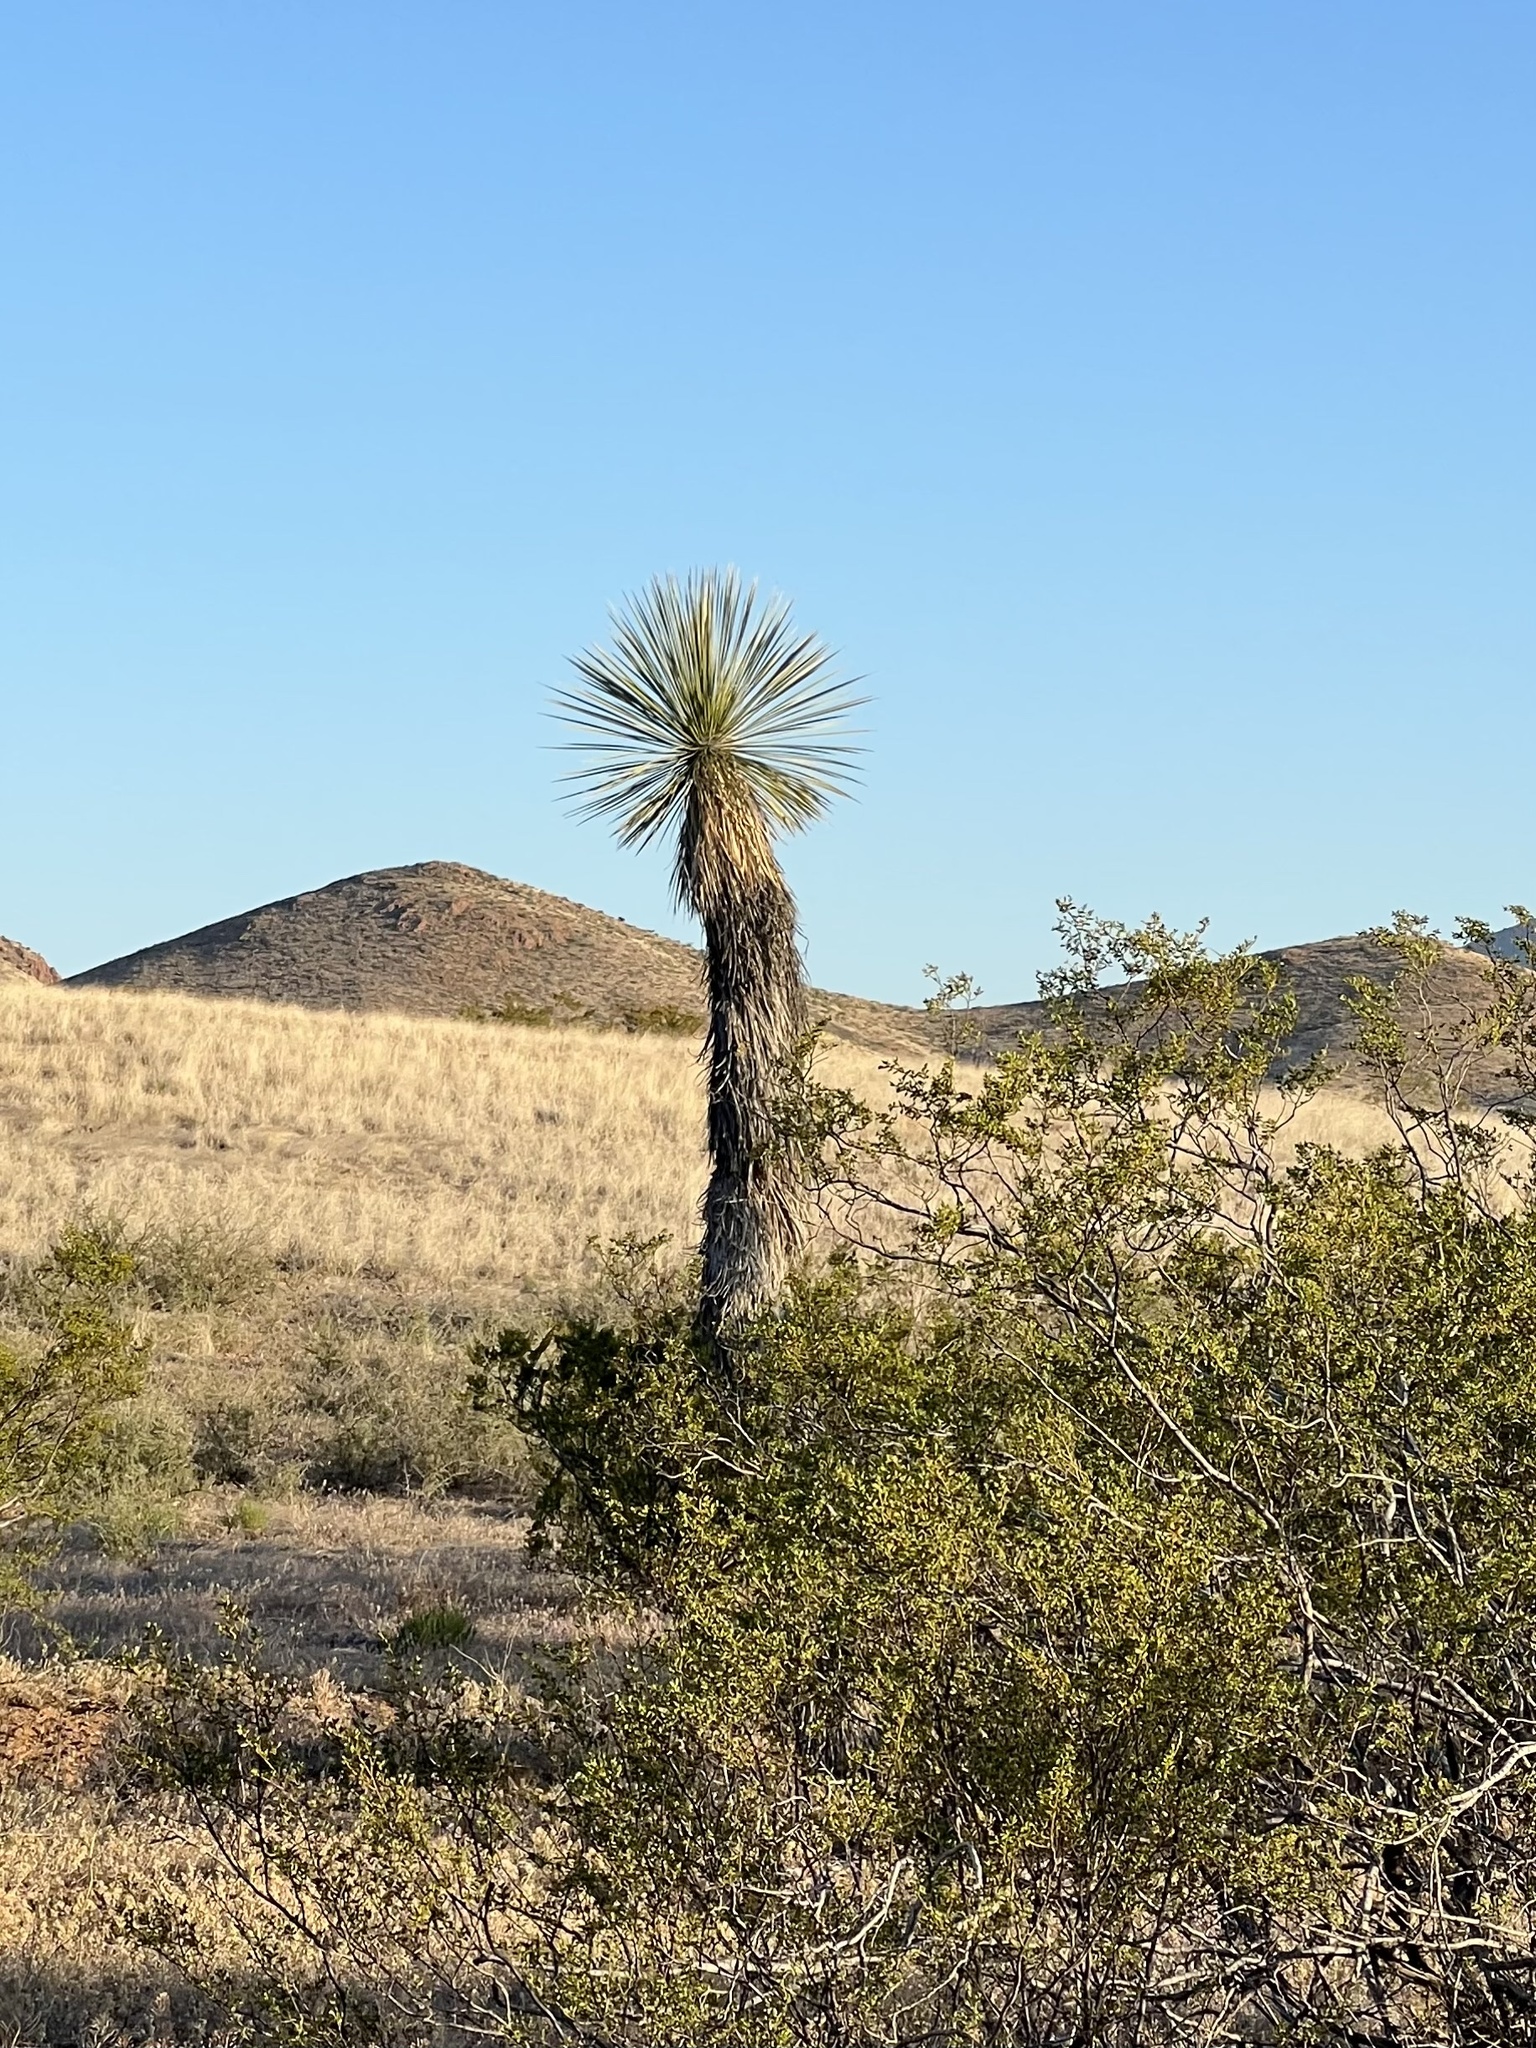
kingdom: Plantae
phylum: Tracheophyta
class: Liliopsida
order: Asparagales
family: Asparagaceae
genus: Yucca
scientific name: Yucca elata
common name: Palmella
